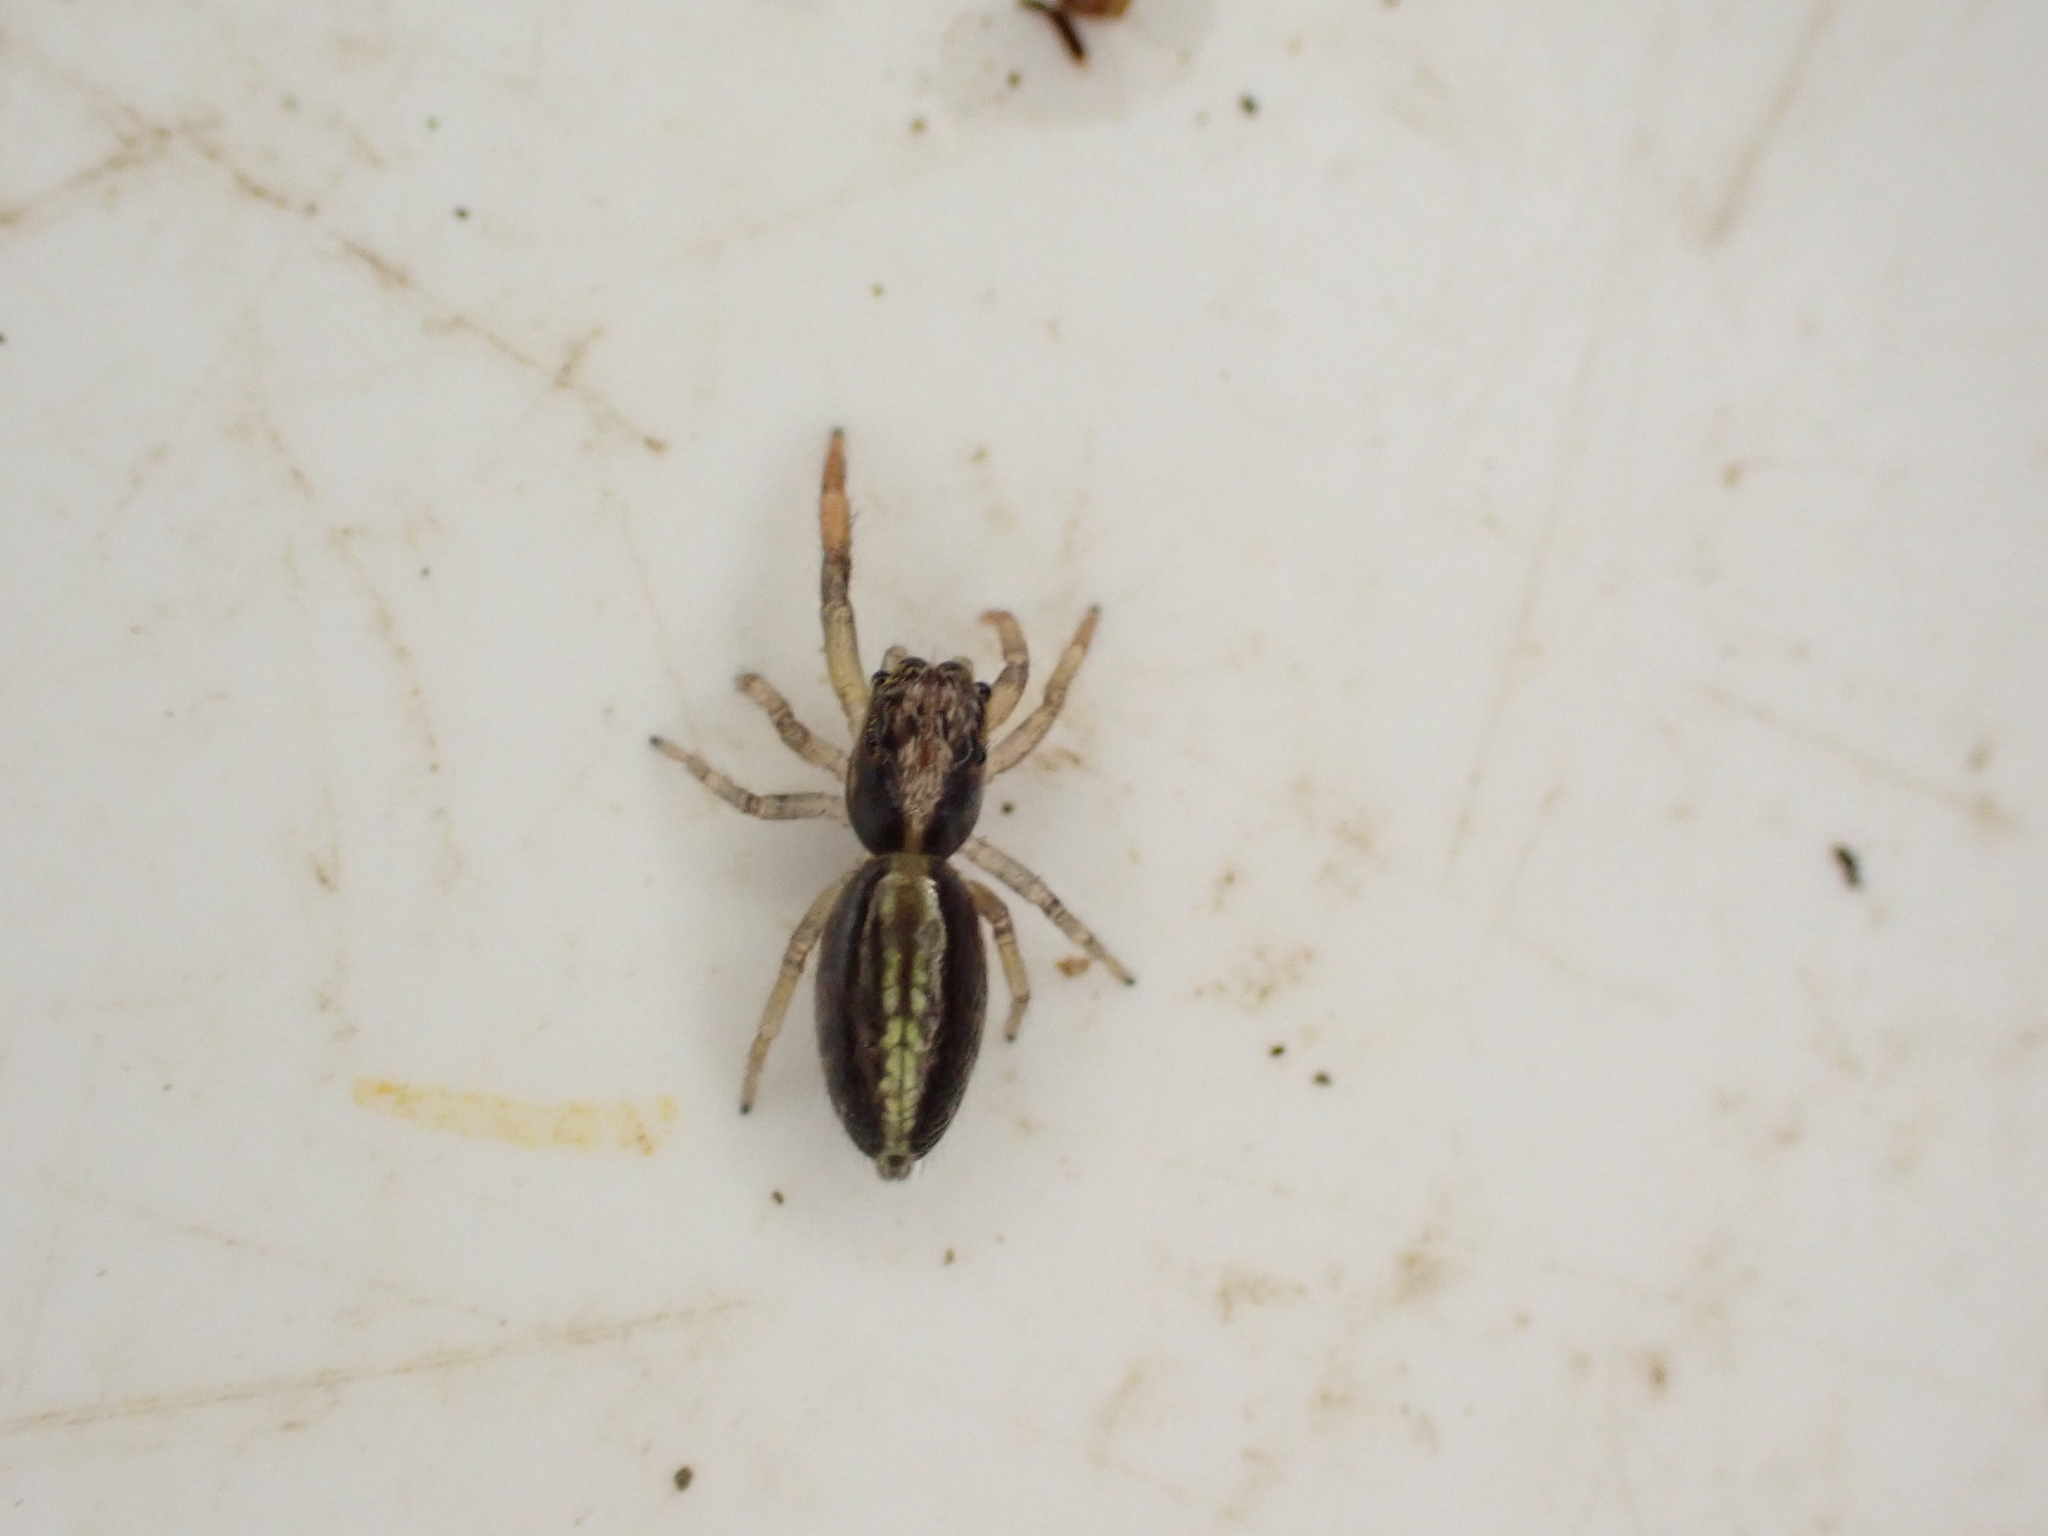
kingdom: Animalia
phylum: Arthropoda
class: Arachnida
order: Araneae
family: Salticidae
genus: Trite
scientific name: Trite planiceps
